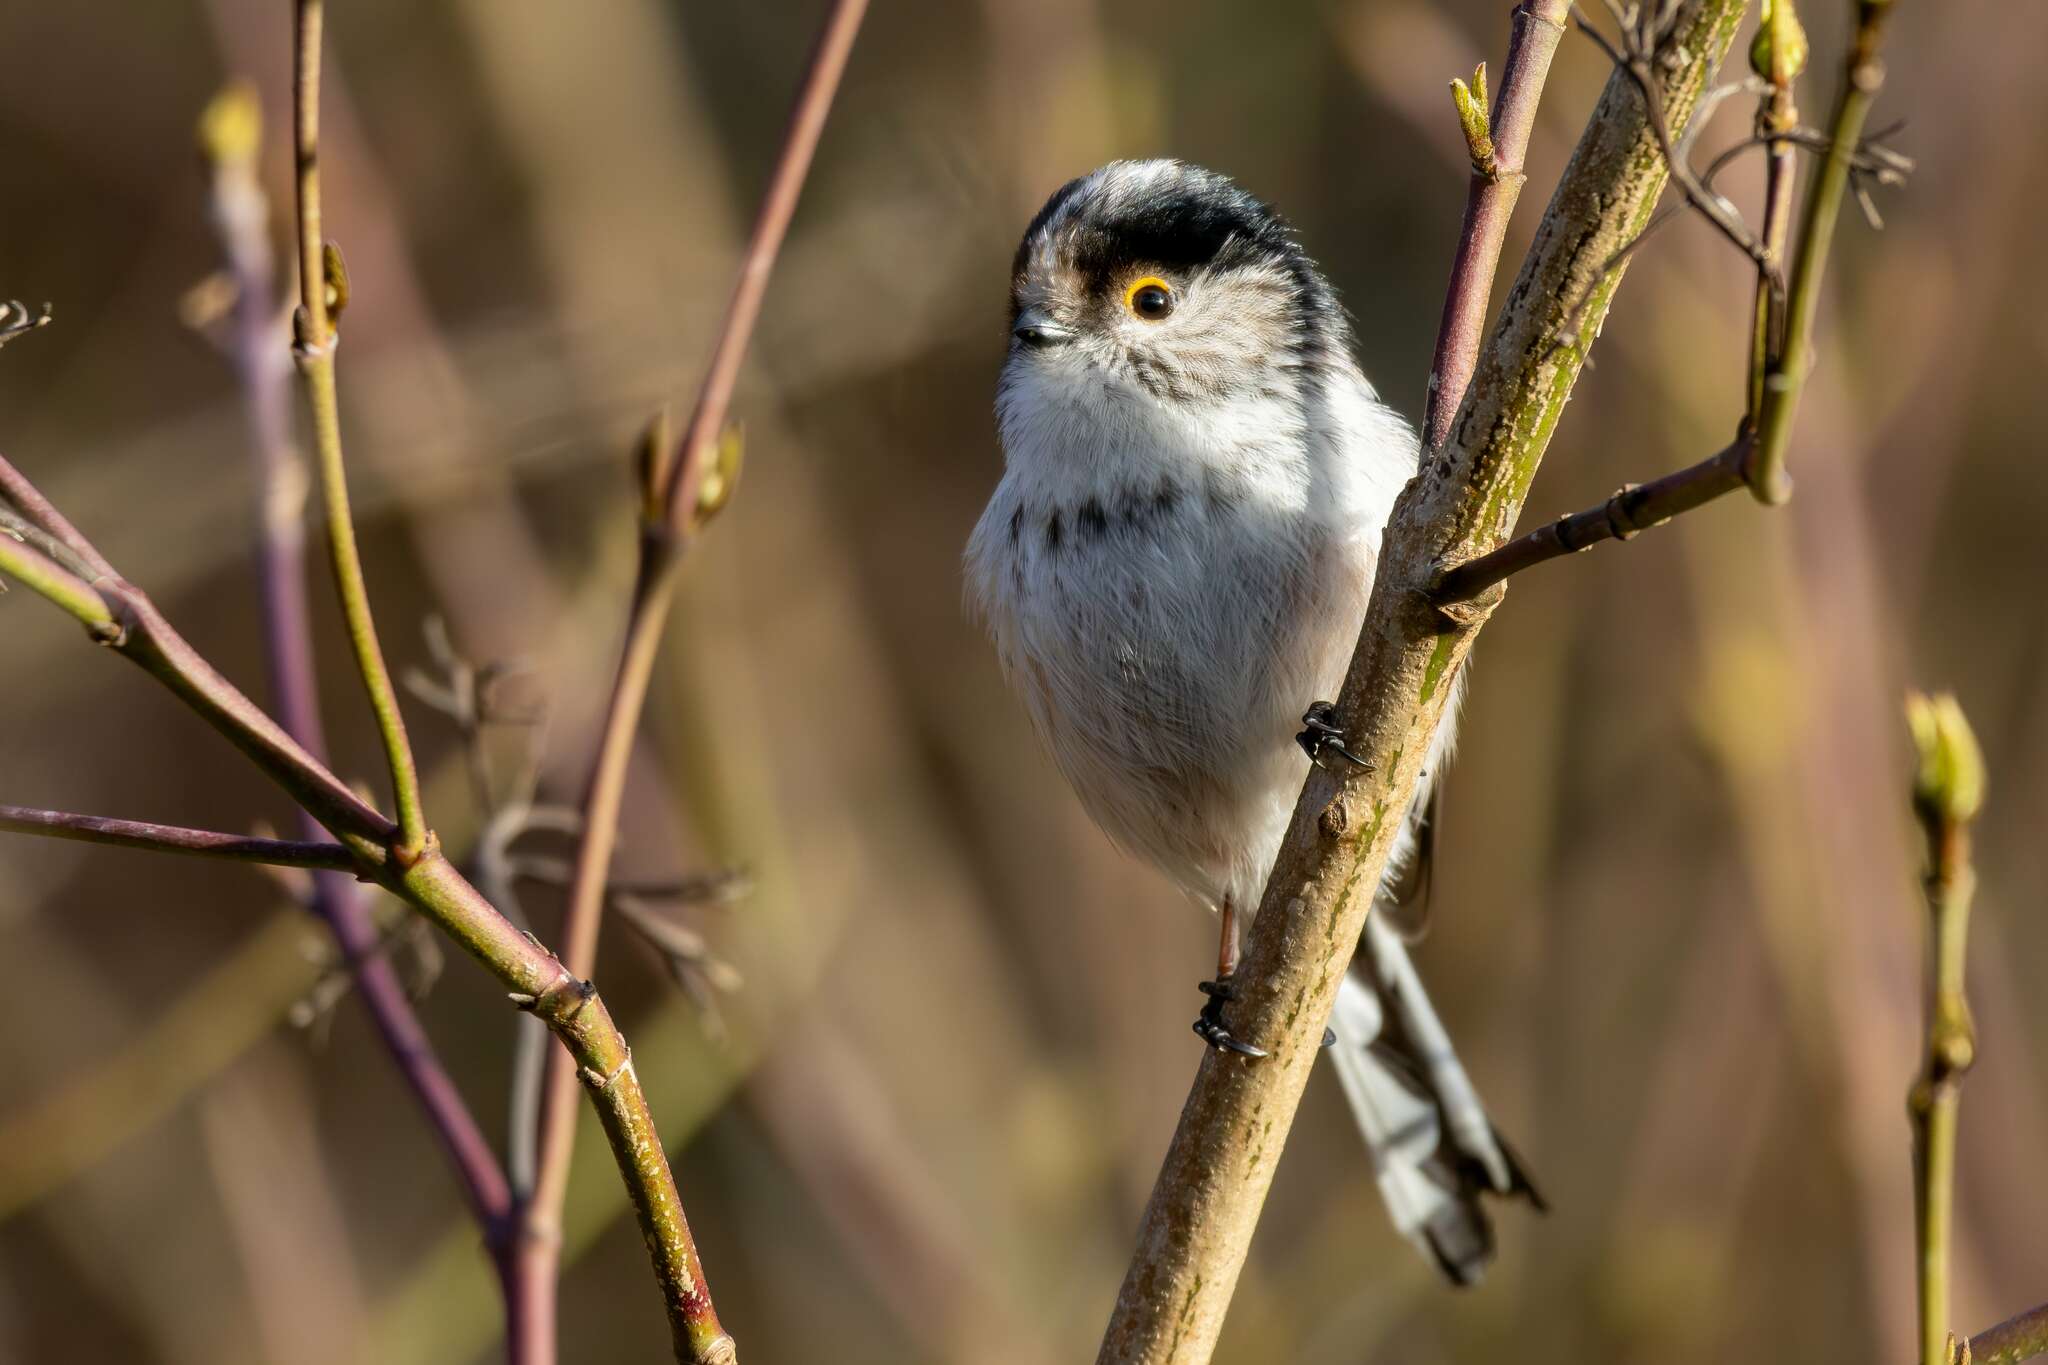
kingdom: Animalia
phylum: Chordata
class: Aves
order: Passeriformes
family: Aegithalidae
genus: Aegithalos
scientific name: Aegithalos caudatus
